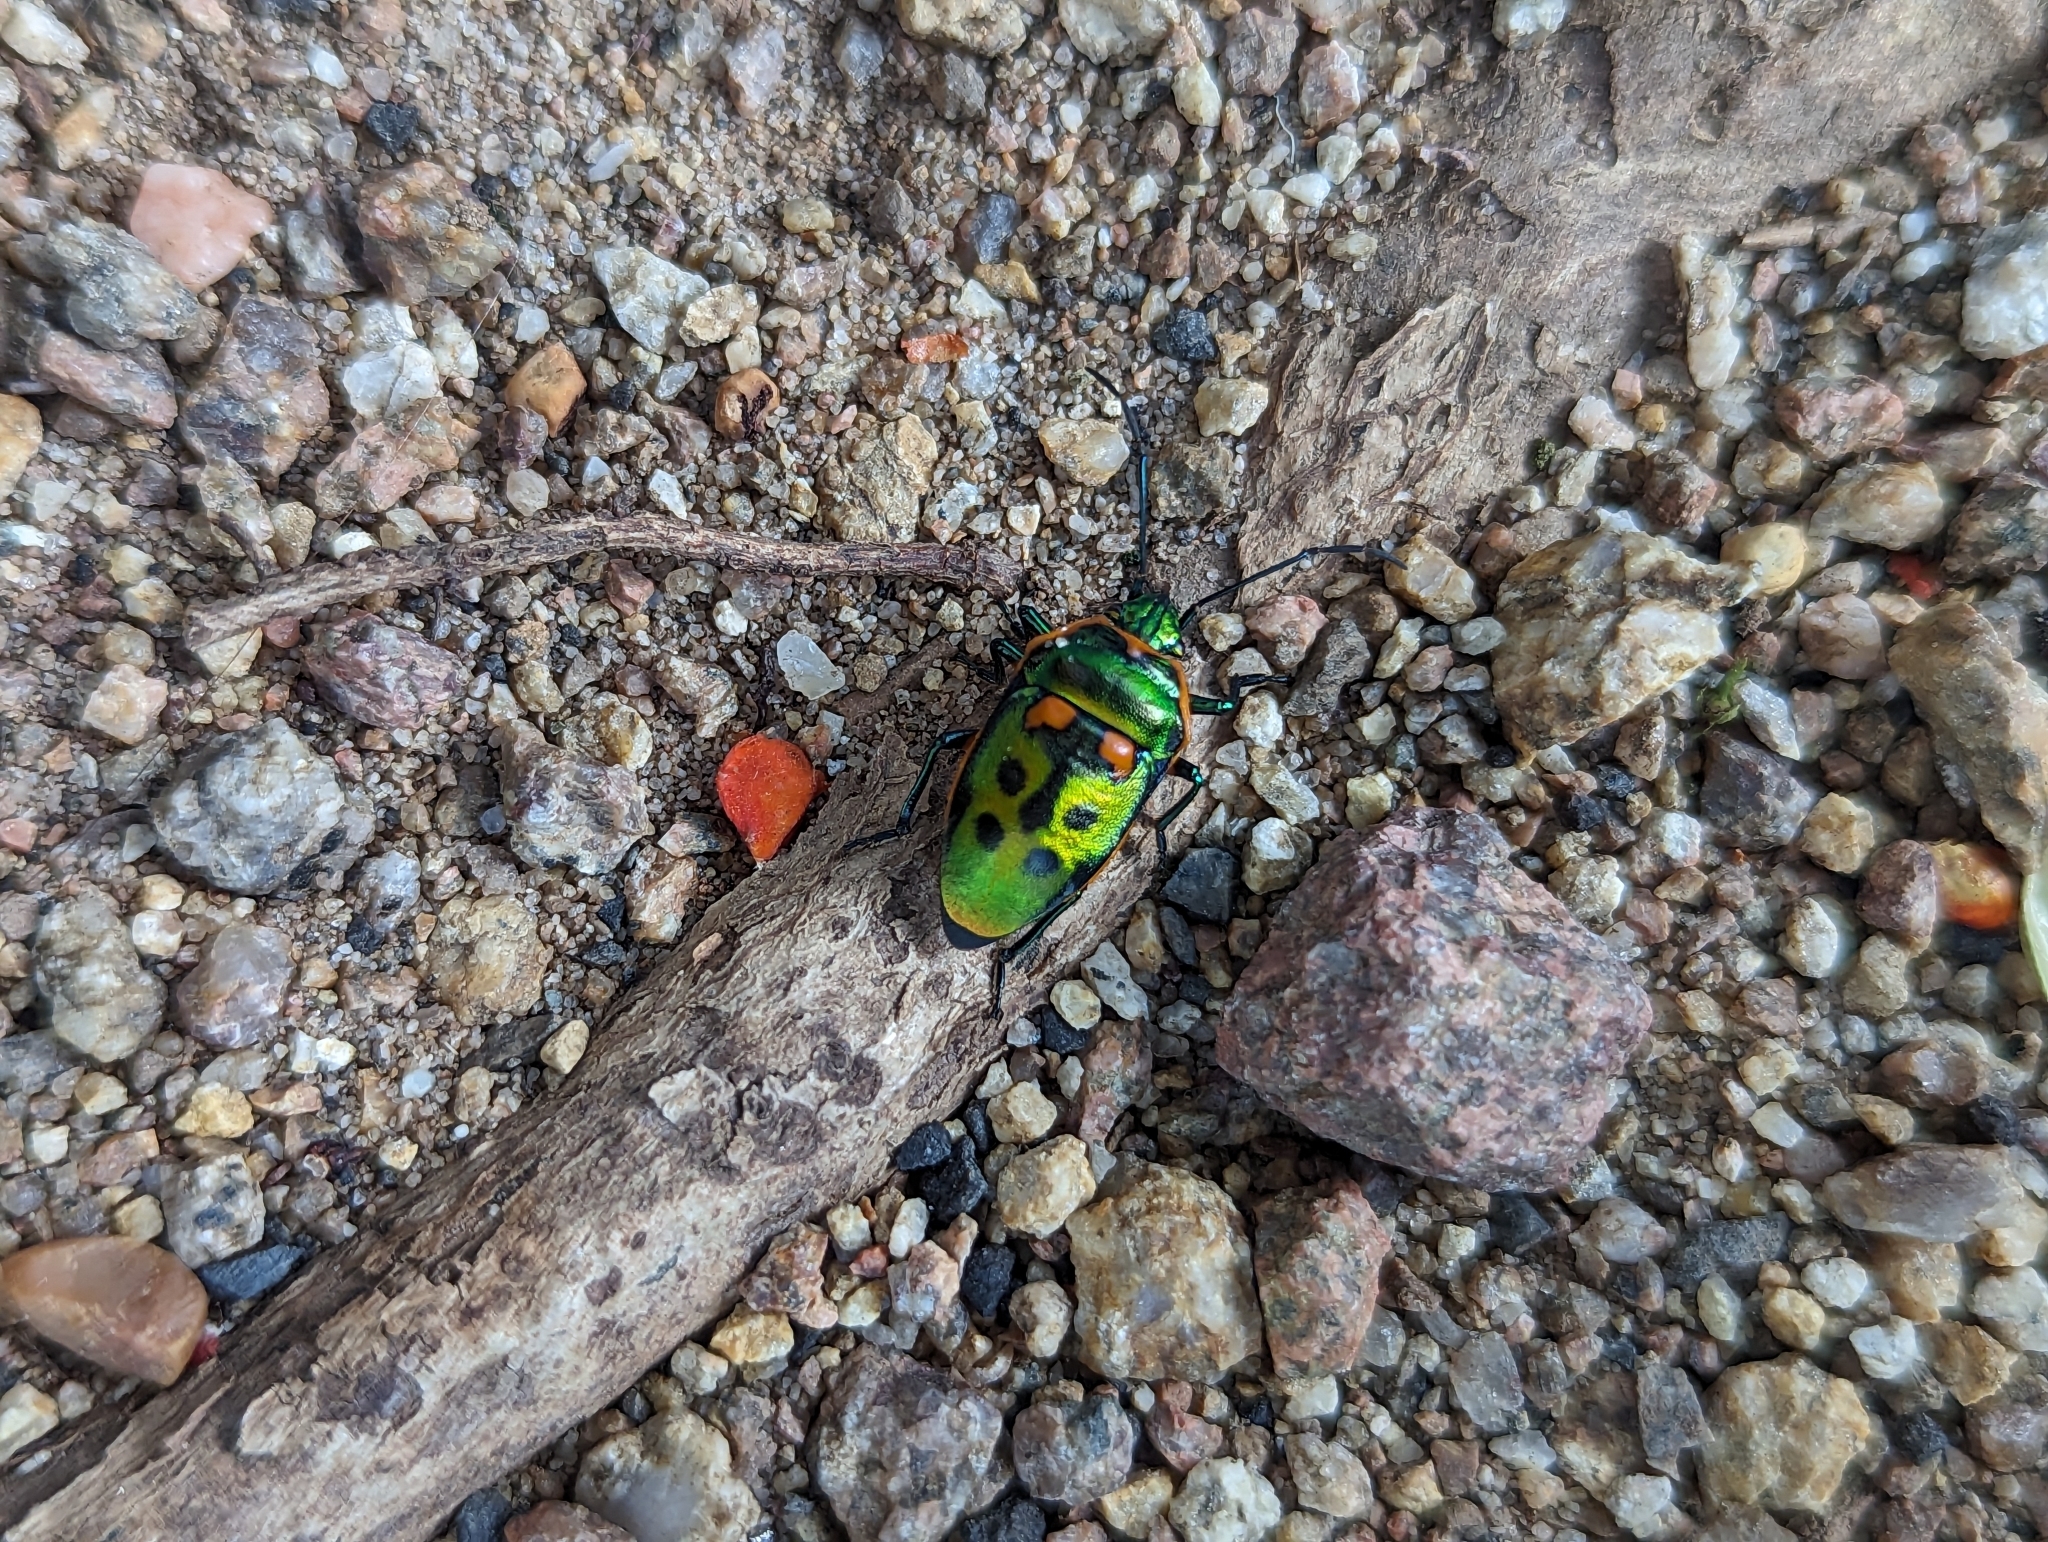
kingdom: Animalia
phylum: Arthropoda
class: Insecta
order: Hemiptera
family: Scutelleridae
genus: Scutiphora
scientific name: Scutiphora pedicellata
